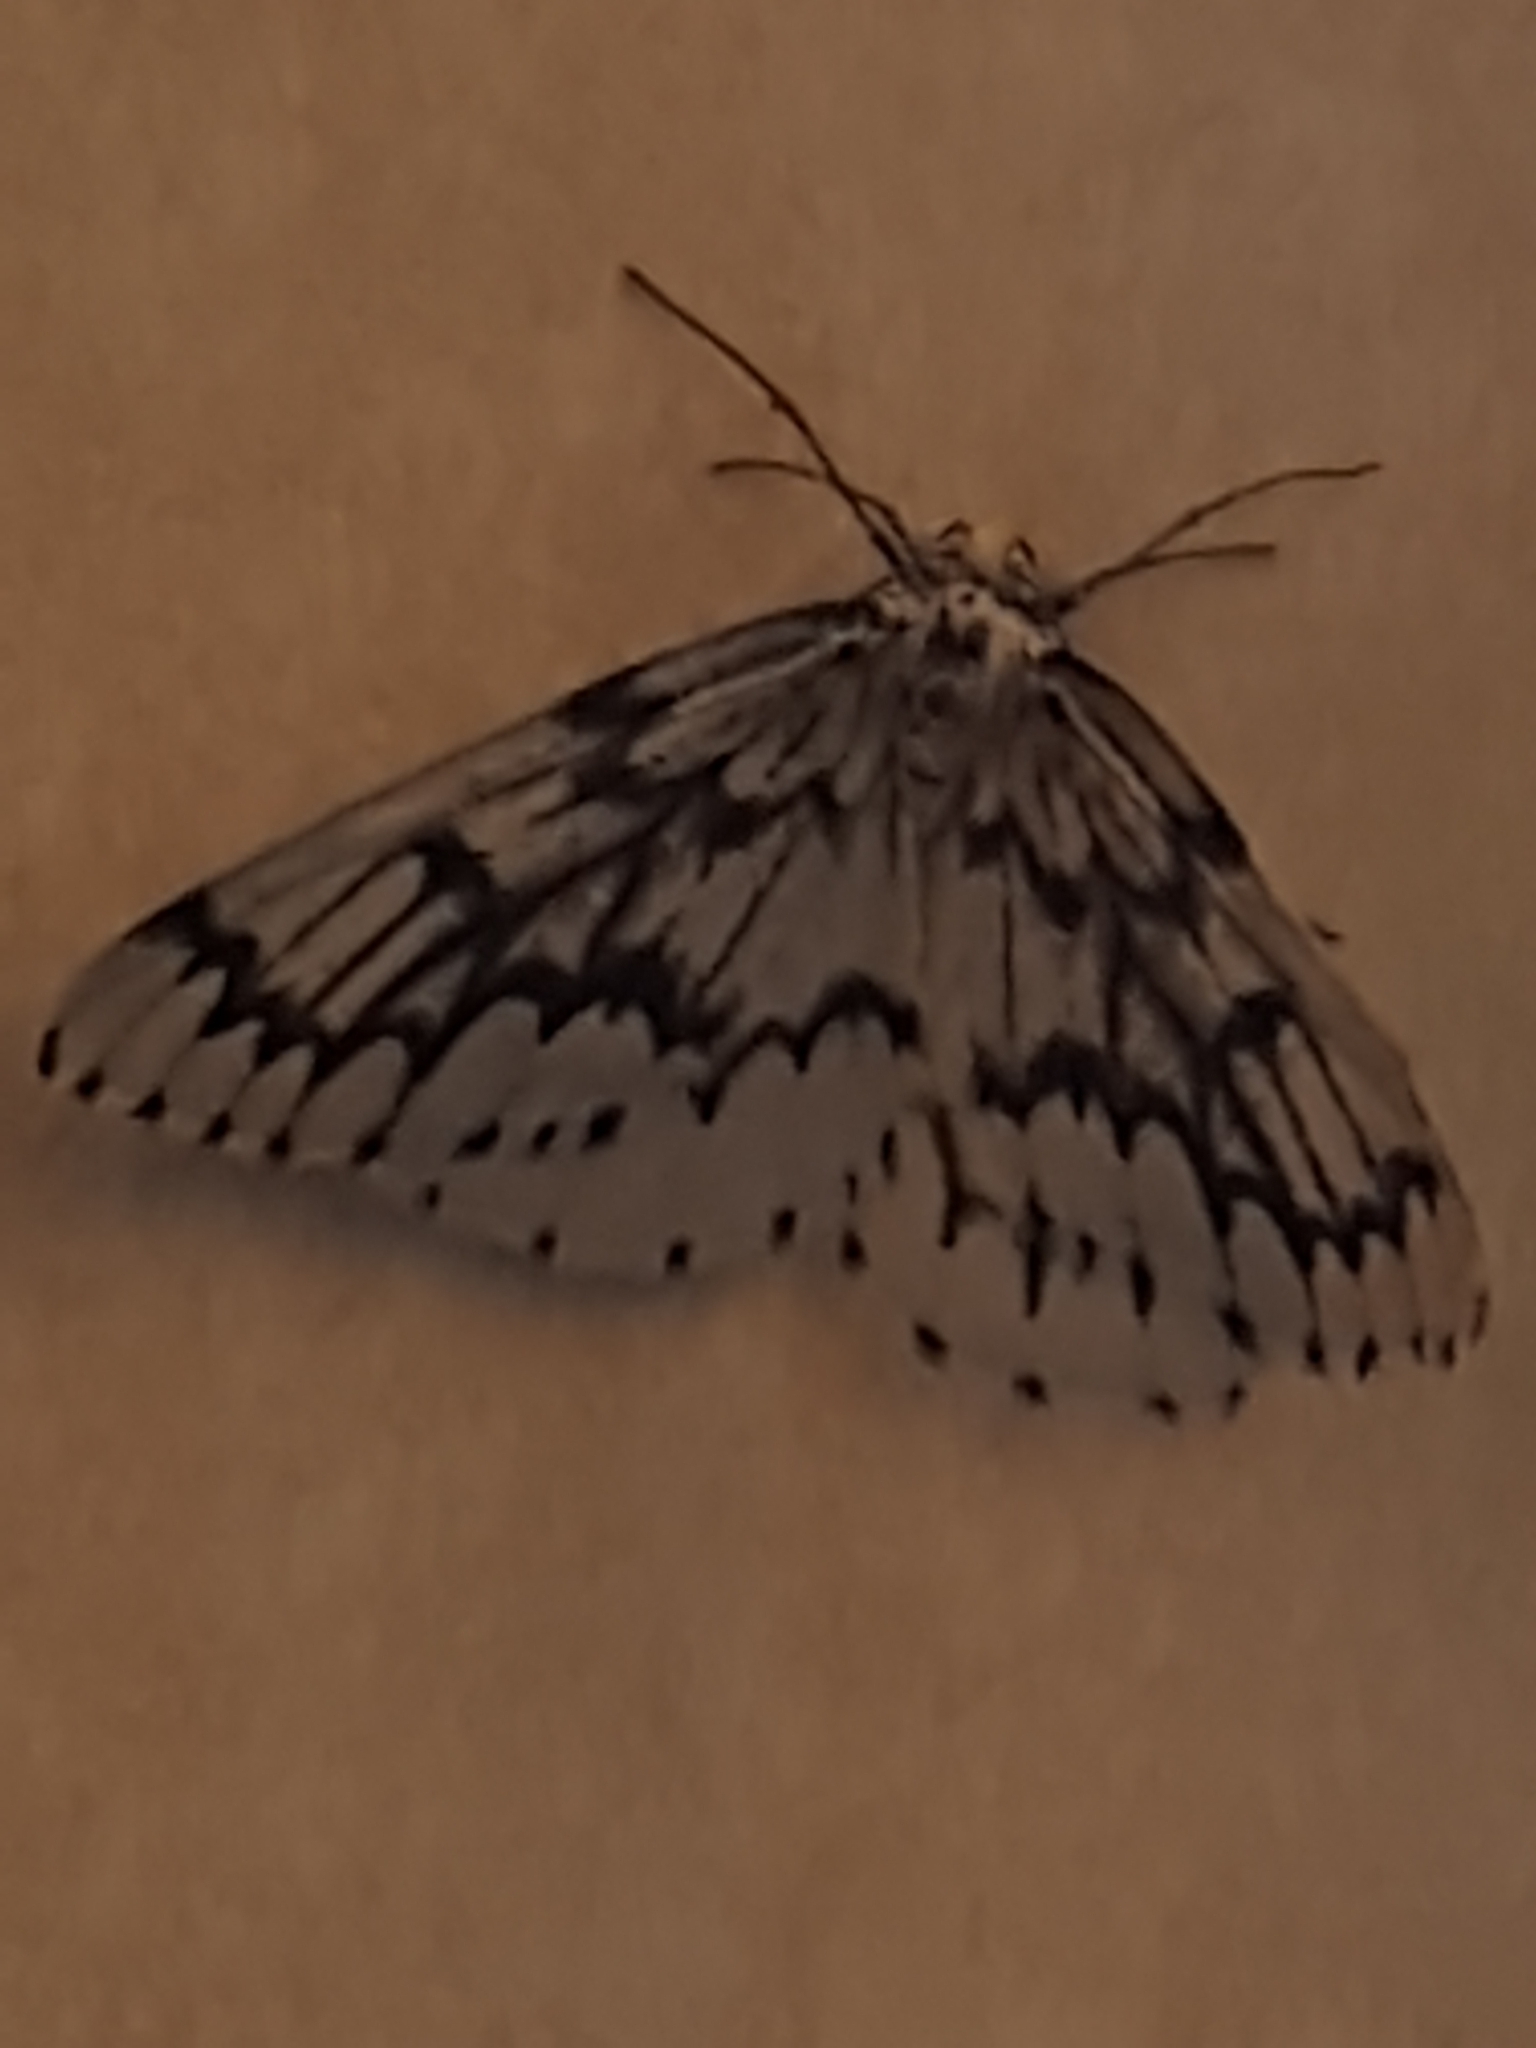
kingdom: Animalia
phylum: Arthropoda
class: Insecta
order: Lepidoptera
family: Geometridae
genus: Nepytia
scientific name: Nepytia phantasmaria
